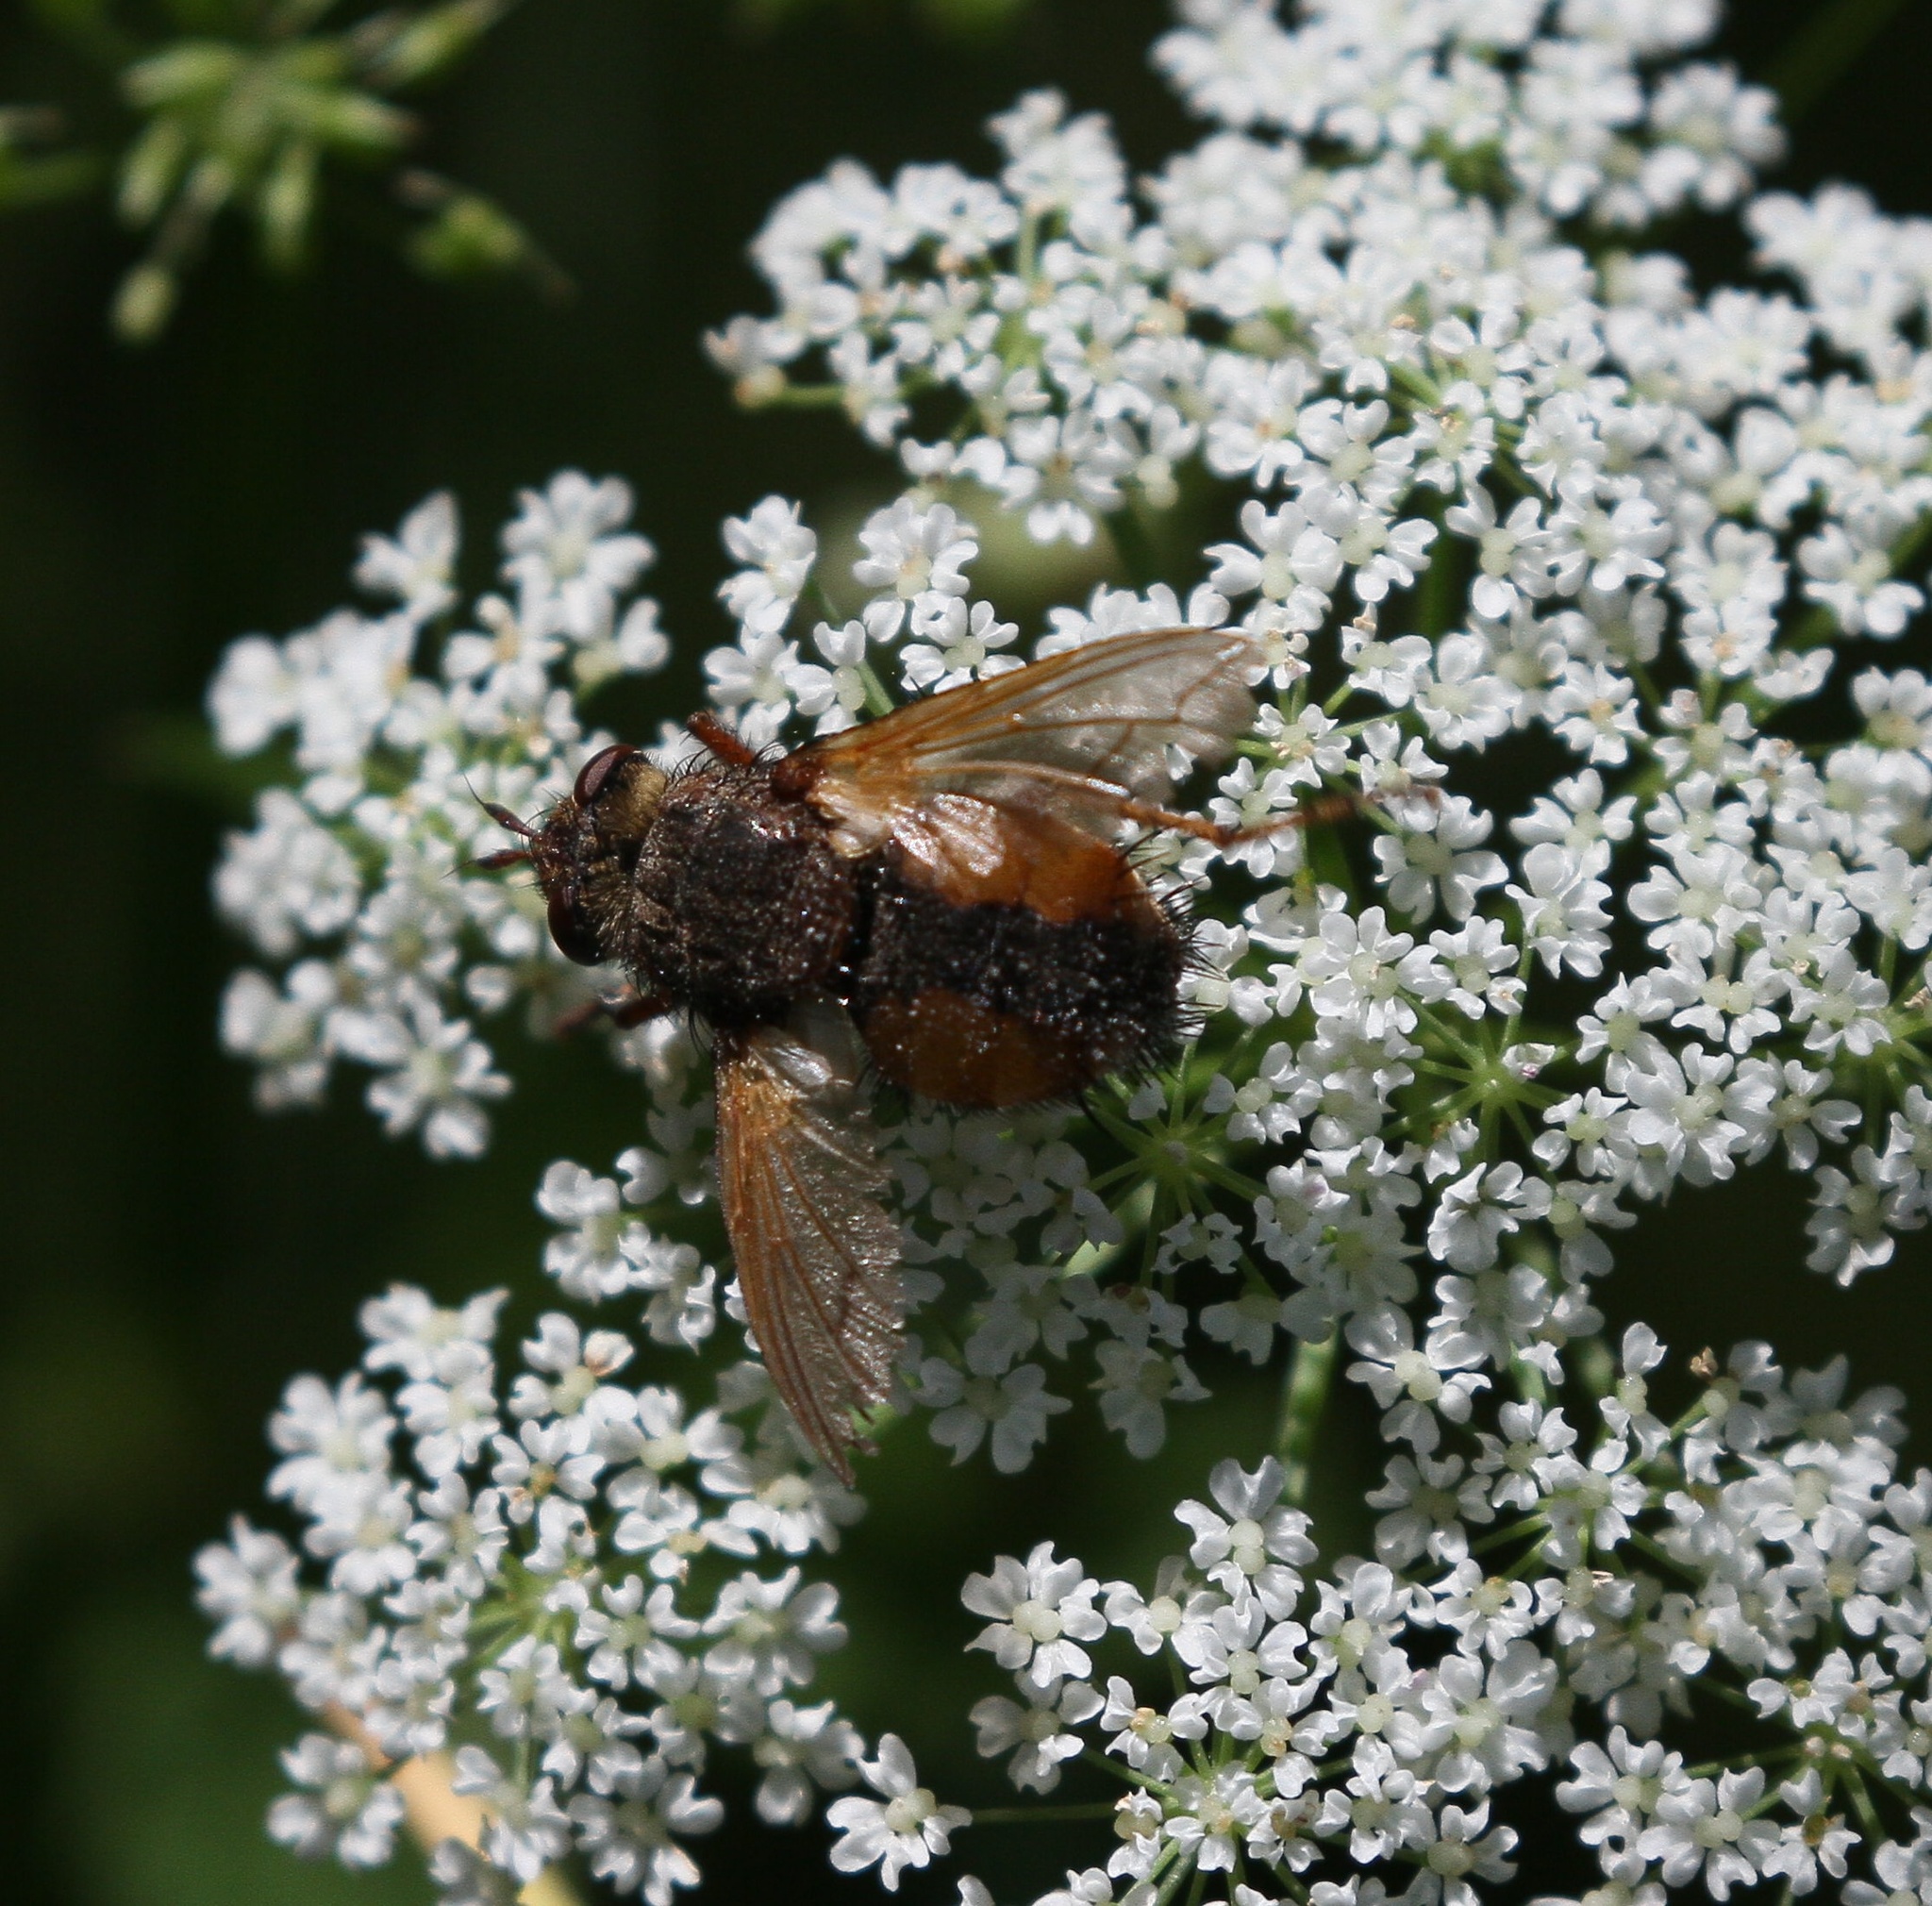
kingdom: Animalia
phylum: Arthropoda
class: Insecta
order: Diptera
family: Tachinidae
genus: Tachina
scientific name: Tachina fera
